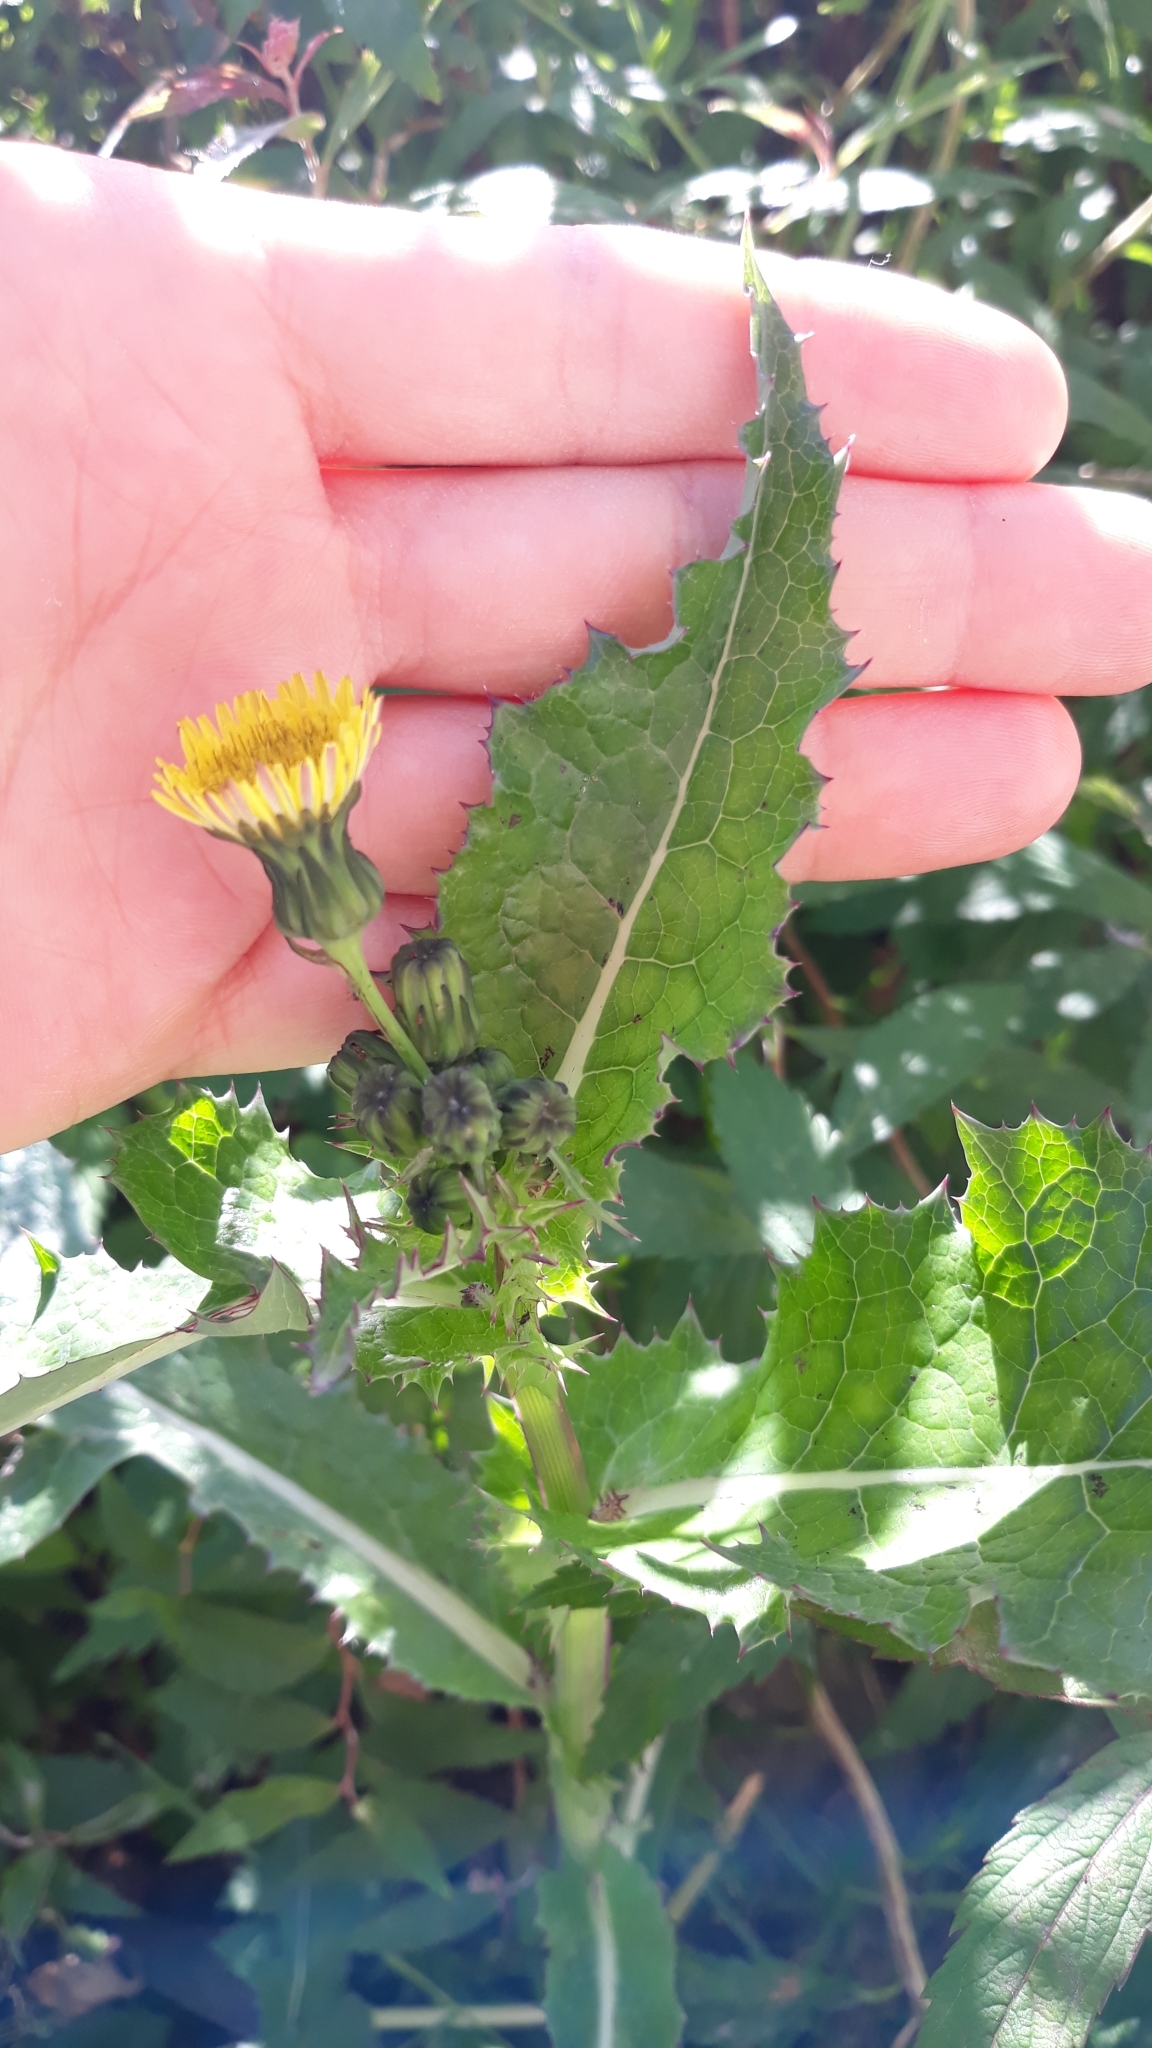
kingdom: Plantae
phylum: Tracheophyta
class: Magnoliopsida
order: Asterales
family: Asteraceae
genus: Sonchus
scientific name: Sonchus asper
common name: Prickly sow-thistle
